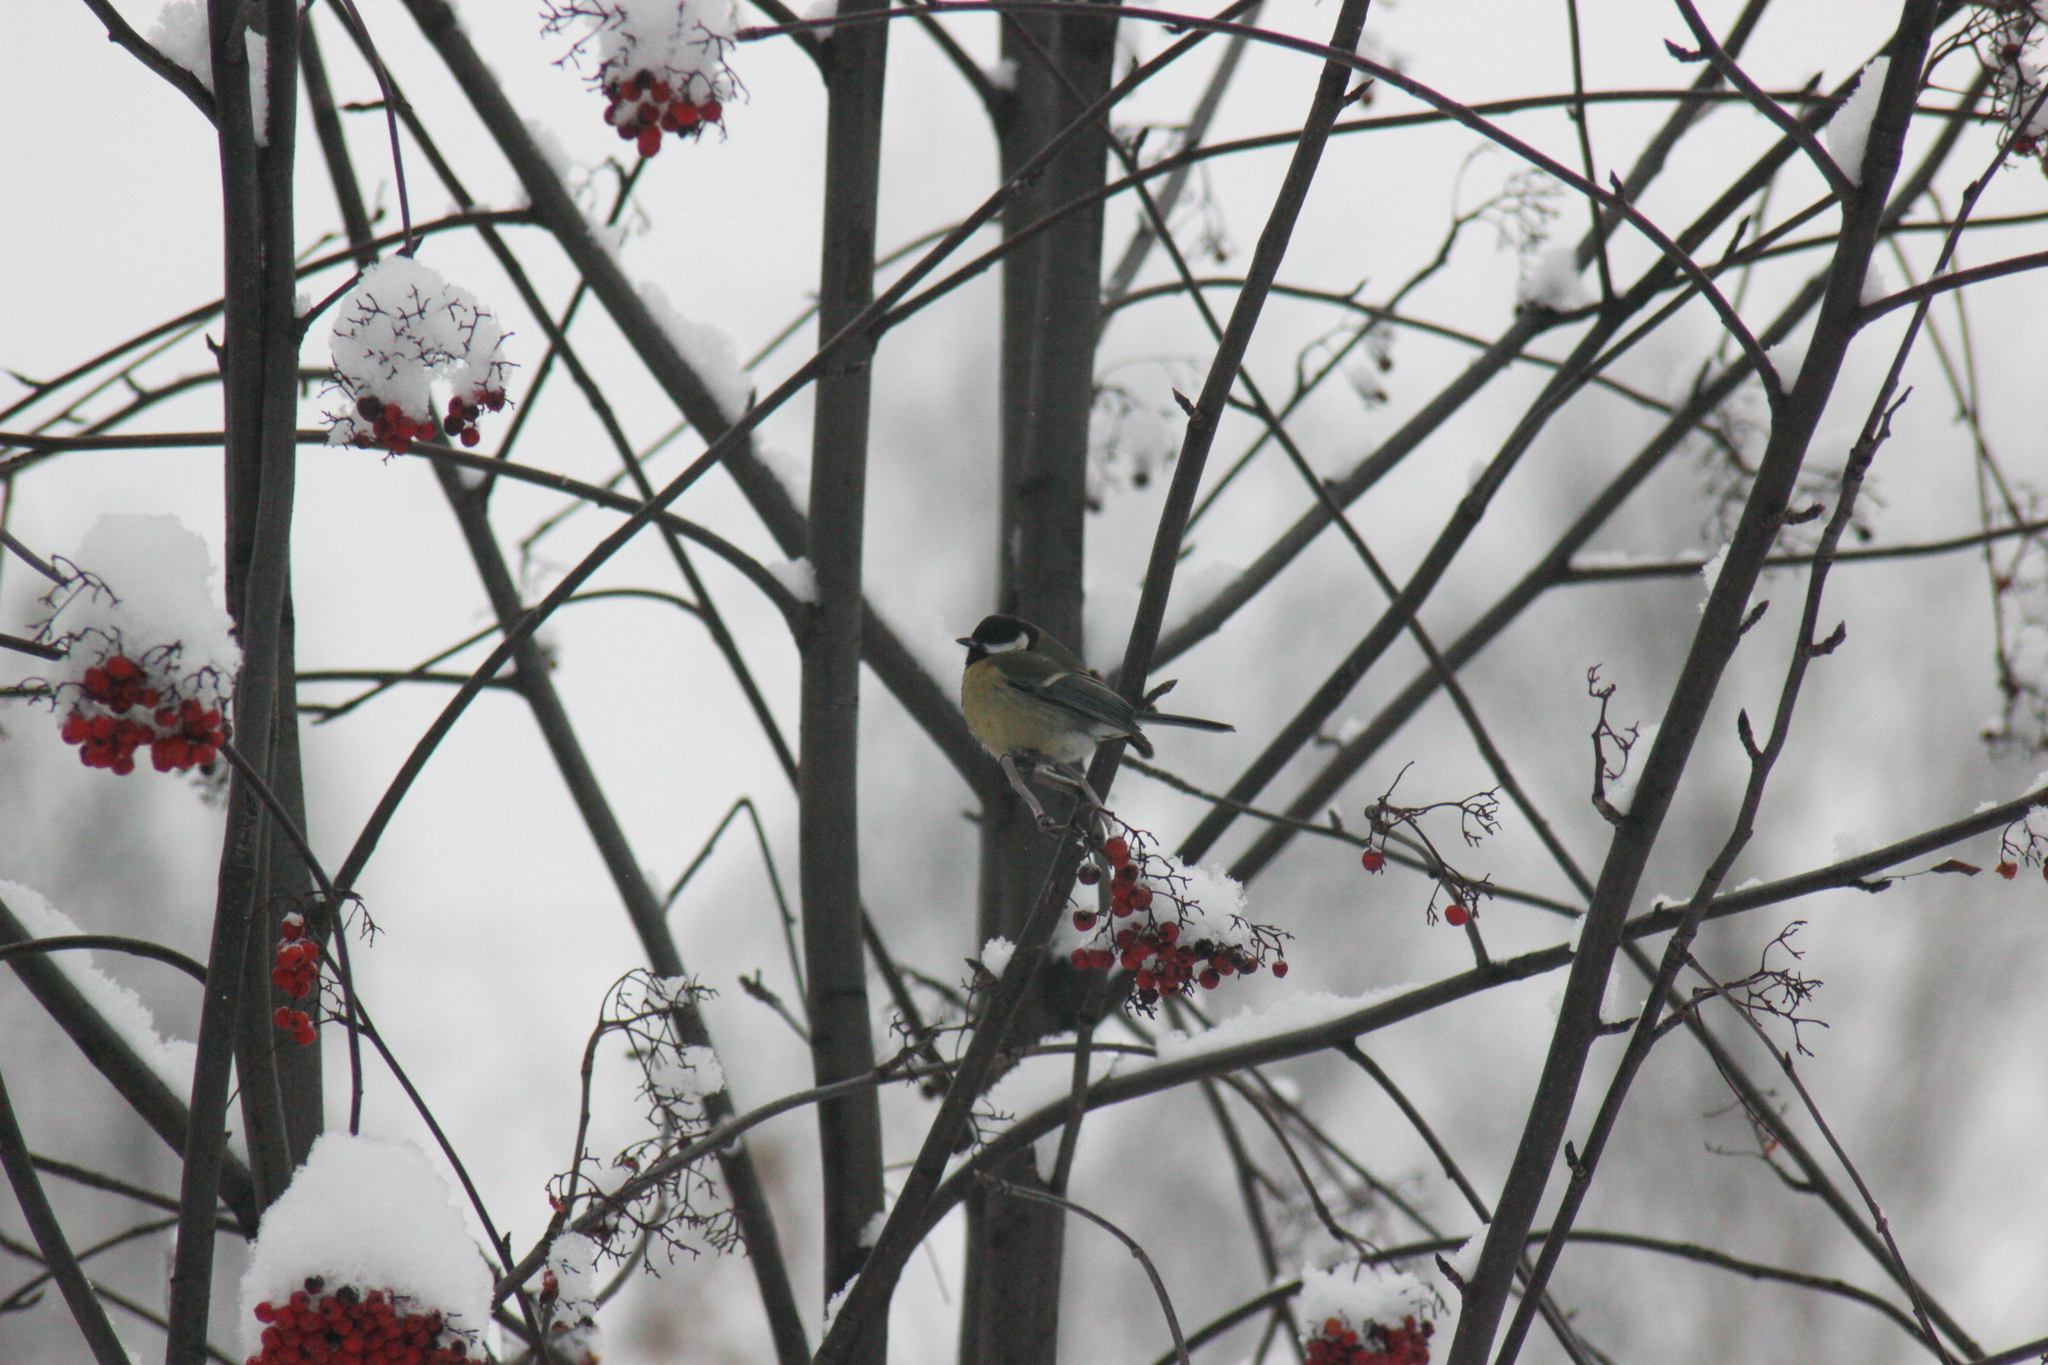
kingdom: Animalia
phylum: Chordata
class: Aves
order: Passeriformes
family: Paridae
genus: Parus
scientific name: Parus major
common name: Great tit
